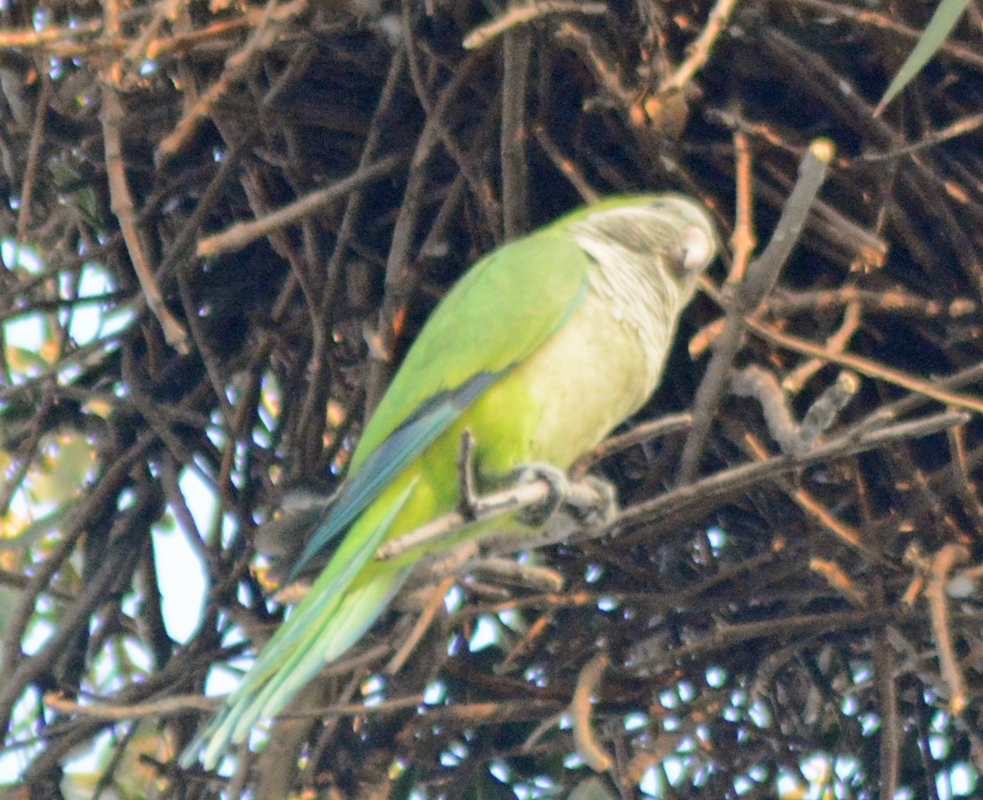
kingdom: Animalia
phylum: Chordata
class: Aves
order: Psittaciformes
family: Psittacidae
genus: Myiopsitta
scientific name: Myiopsitta monachus
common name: Monk parakeet
